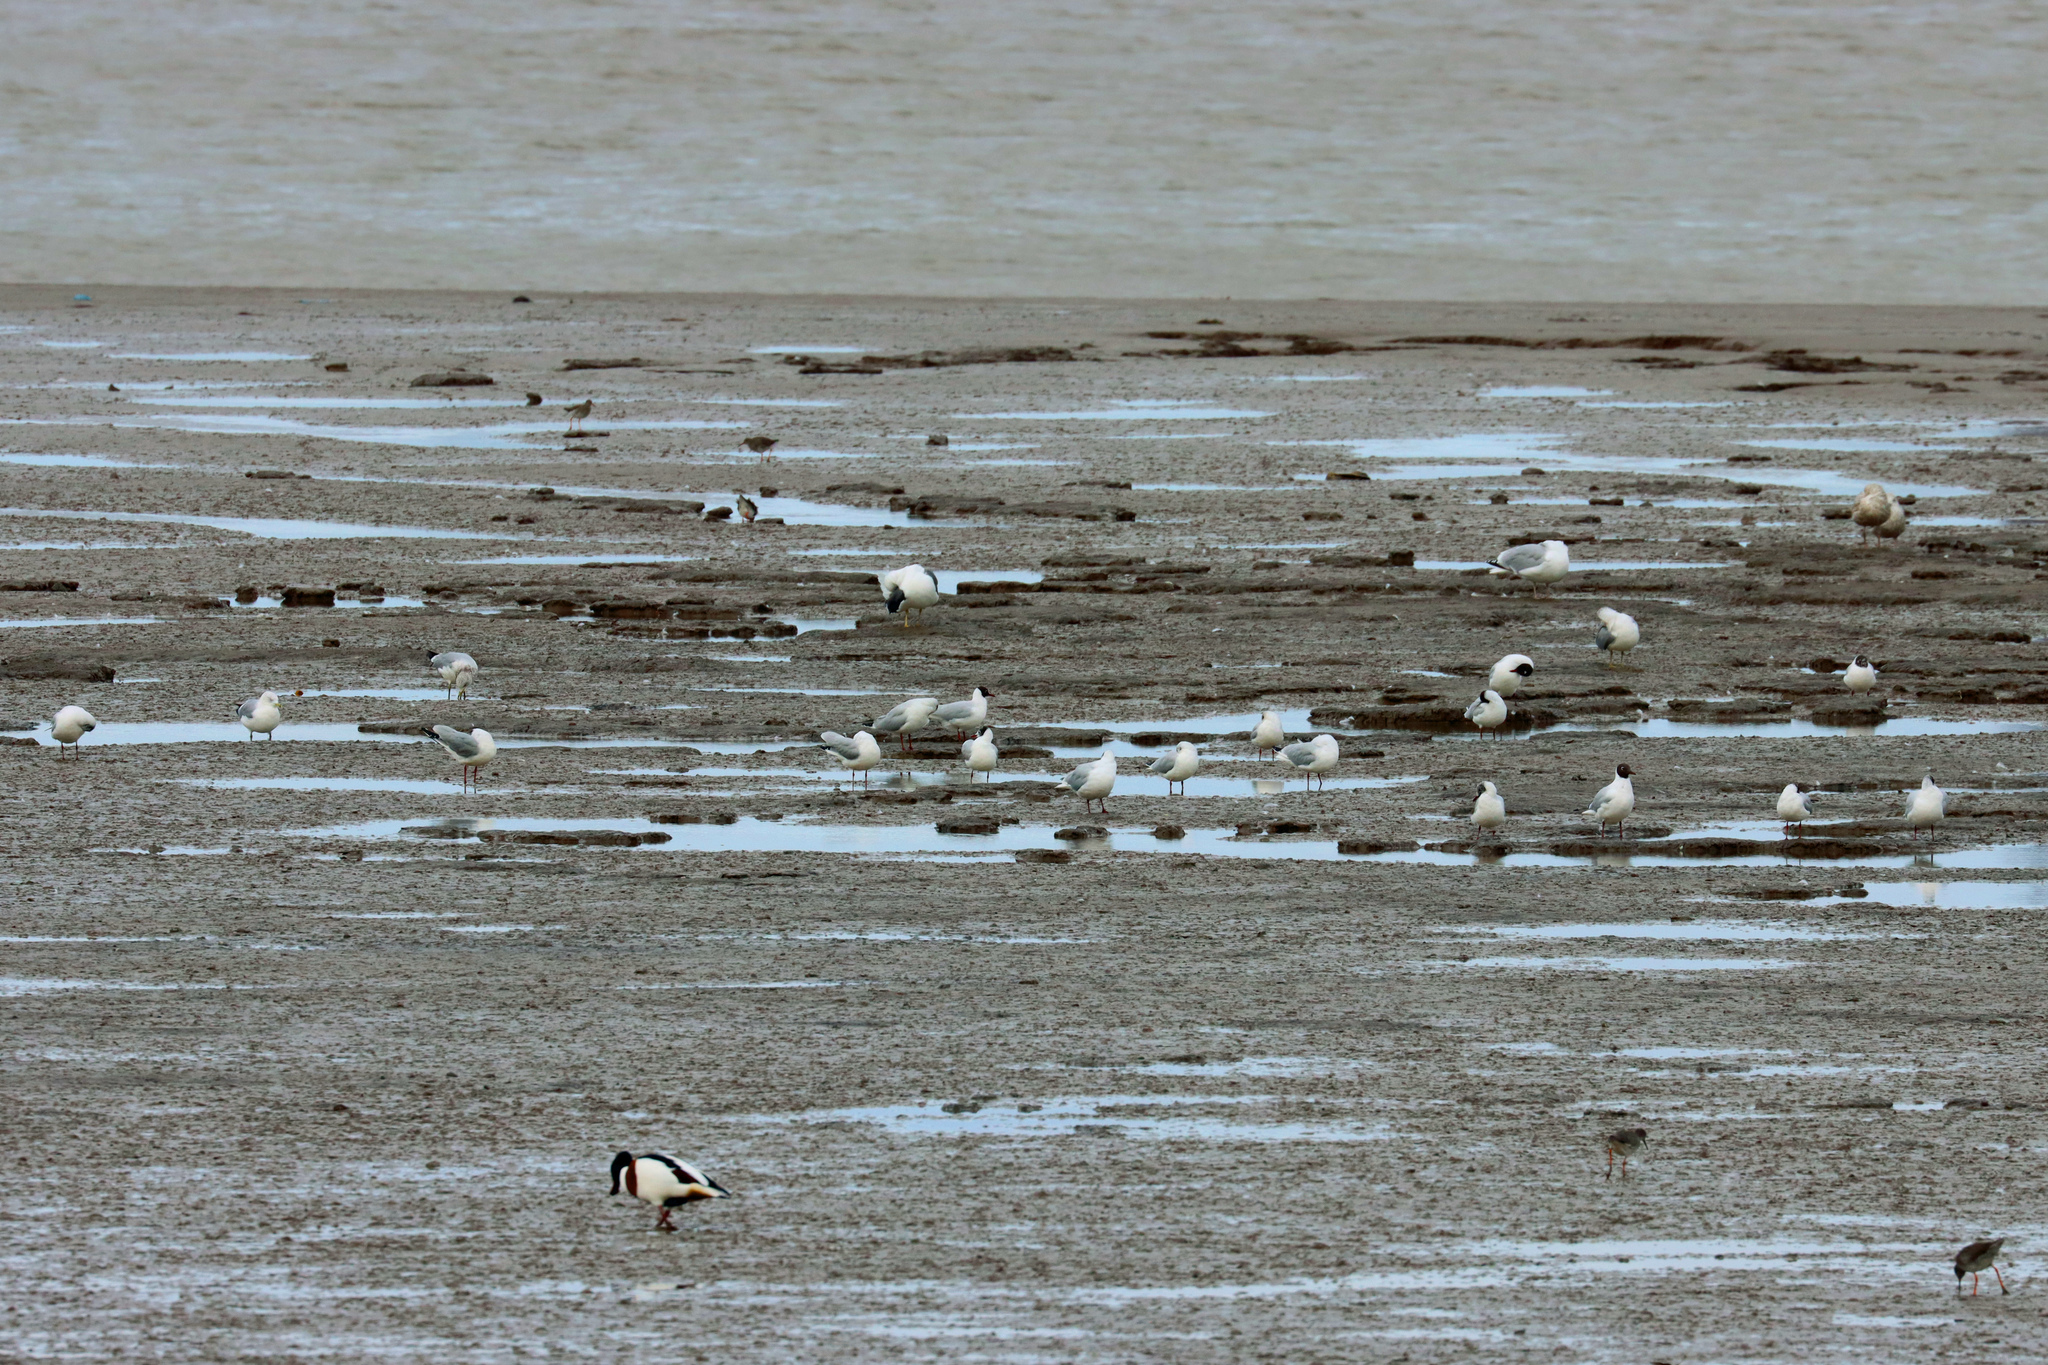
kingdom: Animalia
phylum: Chordata
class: Aves
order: Anseriformes
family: Anatidae
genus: Tadorna
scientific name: Tadorna tadorna
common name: Common shelduck
